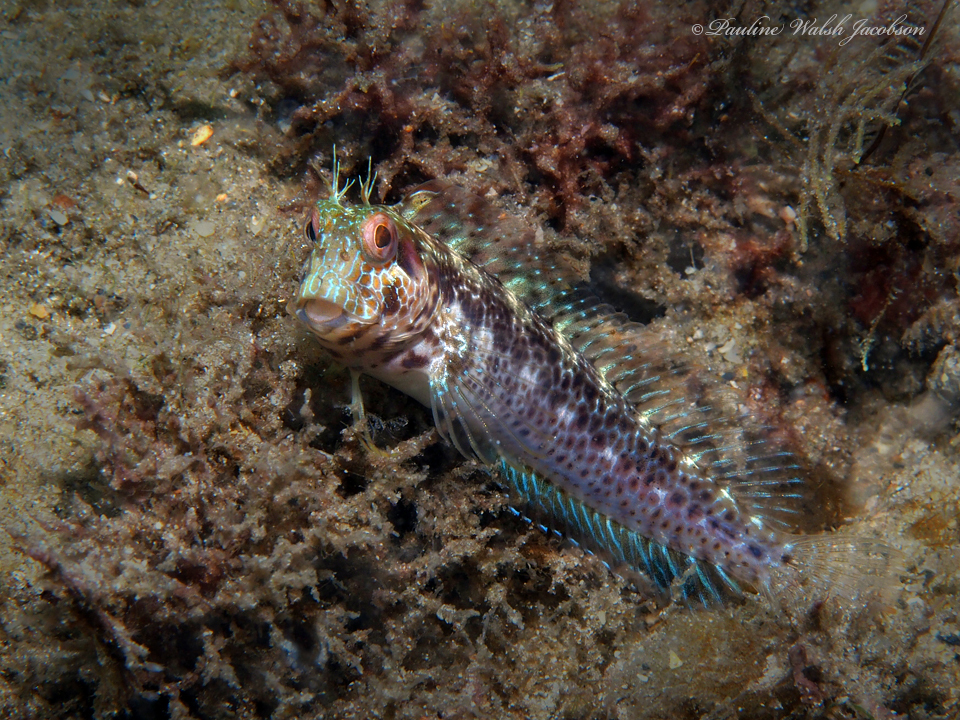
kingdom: Animalia
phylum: Chordata
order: Perciformes
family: Blenniidae
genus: Parablennius
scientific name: Parablennius marmoreus
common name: Seaweed blenny
